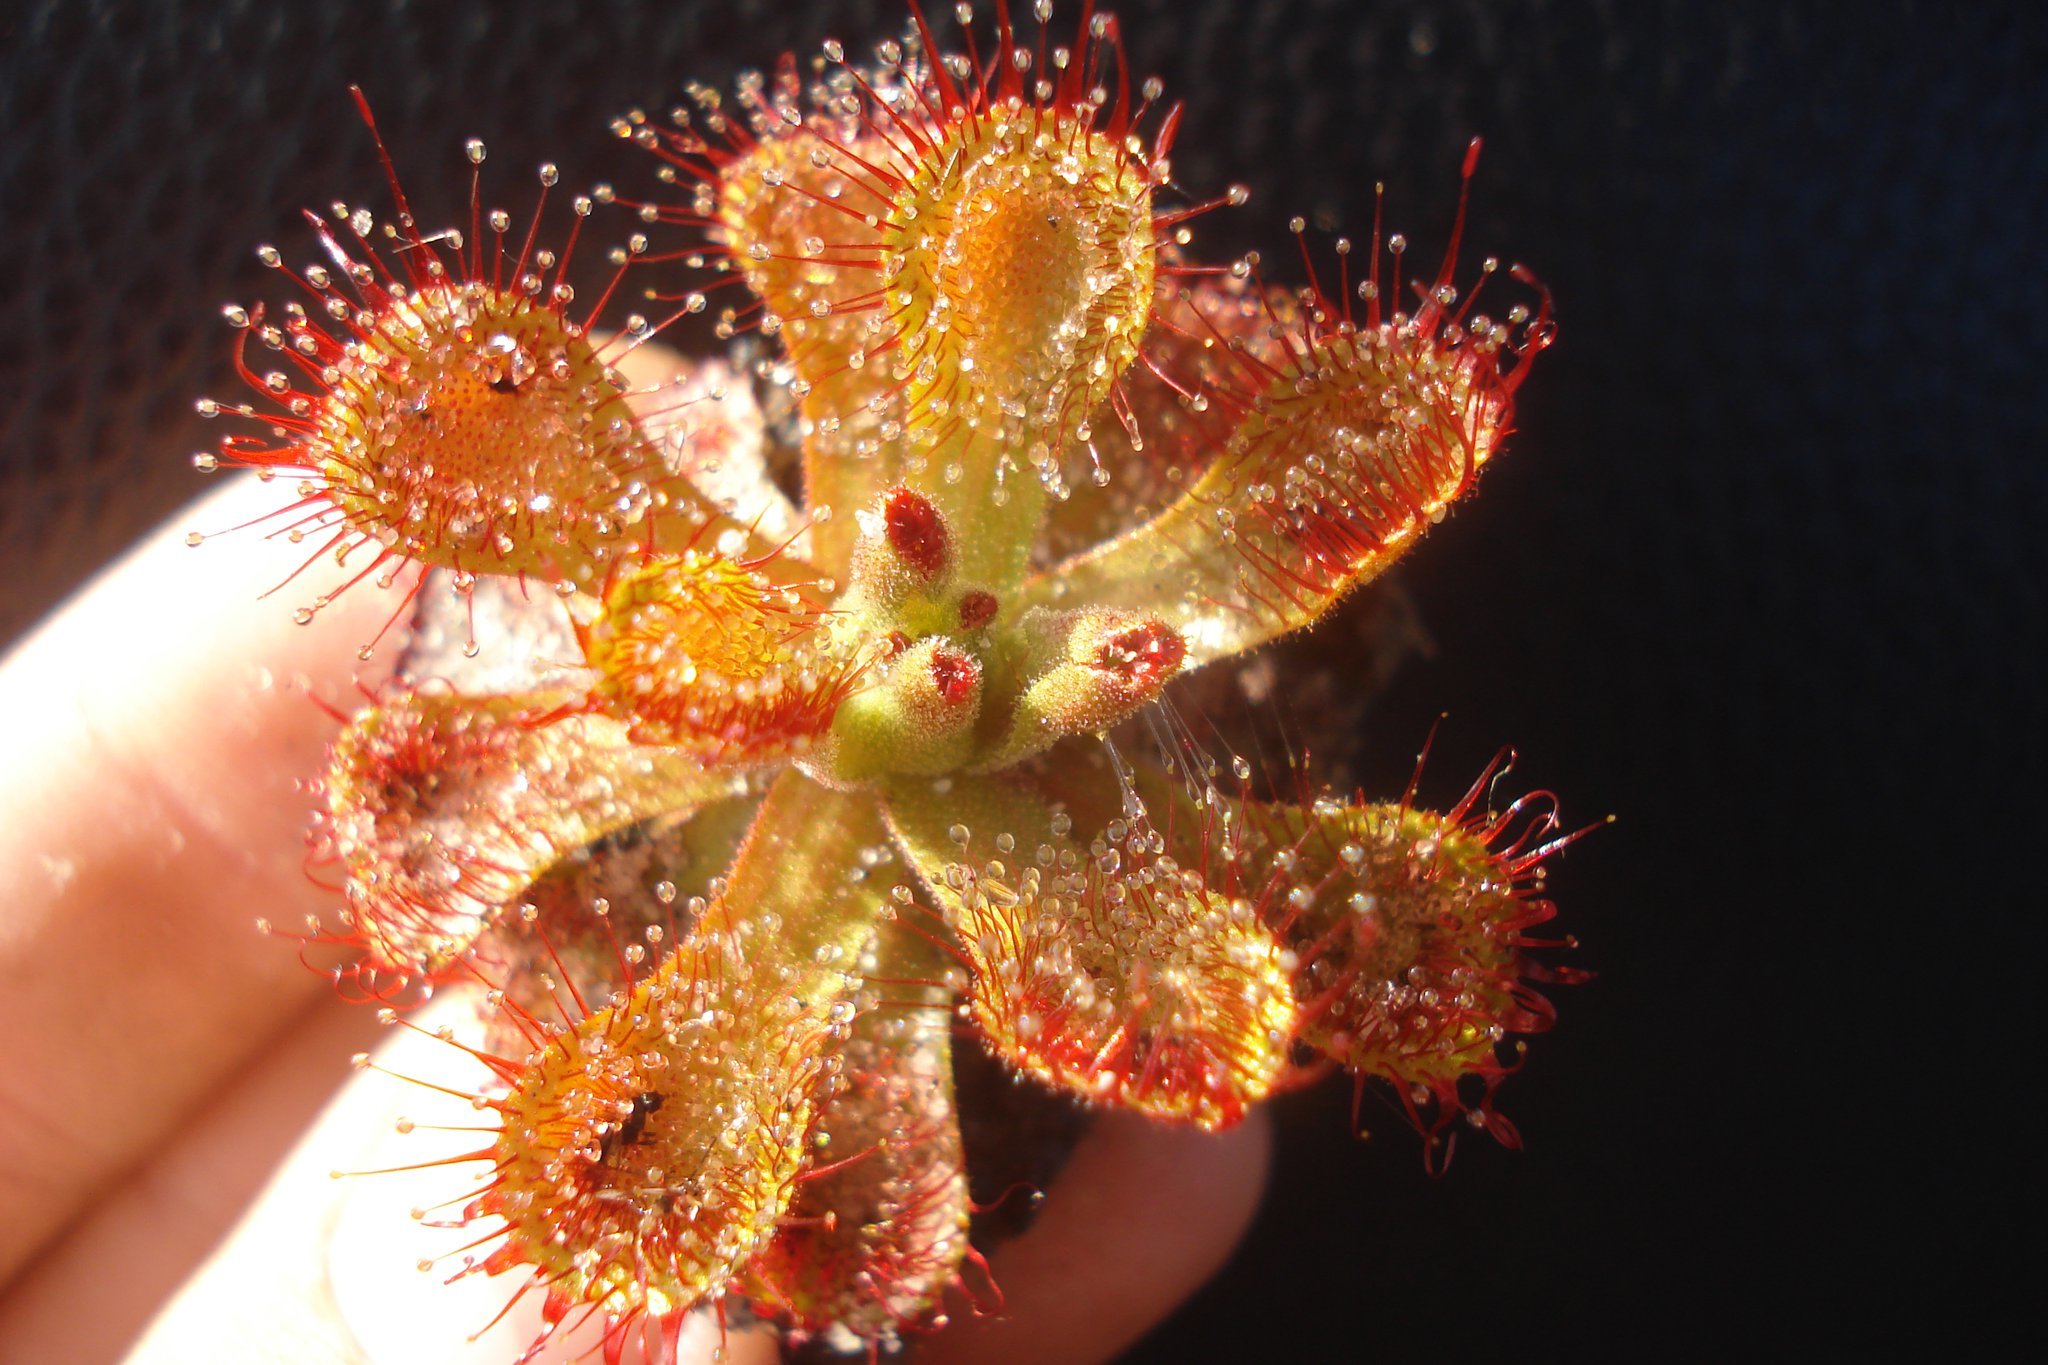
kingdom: Plantae
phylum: Tracheophyta
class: Magnoliopsida
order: Caryophyllales
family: Droseraceae
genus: Drosera
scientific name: Drosera sessilifolia
